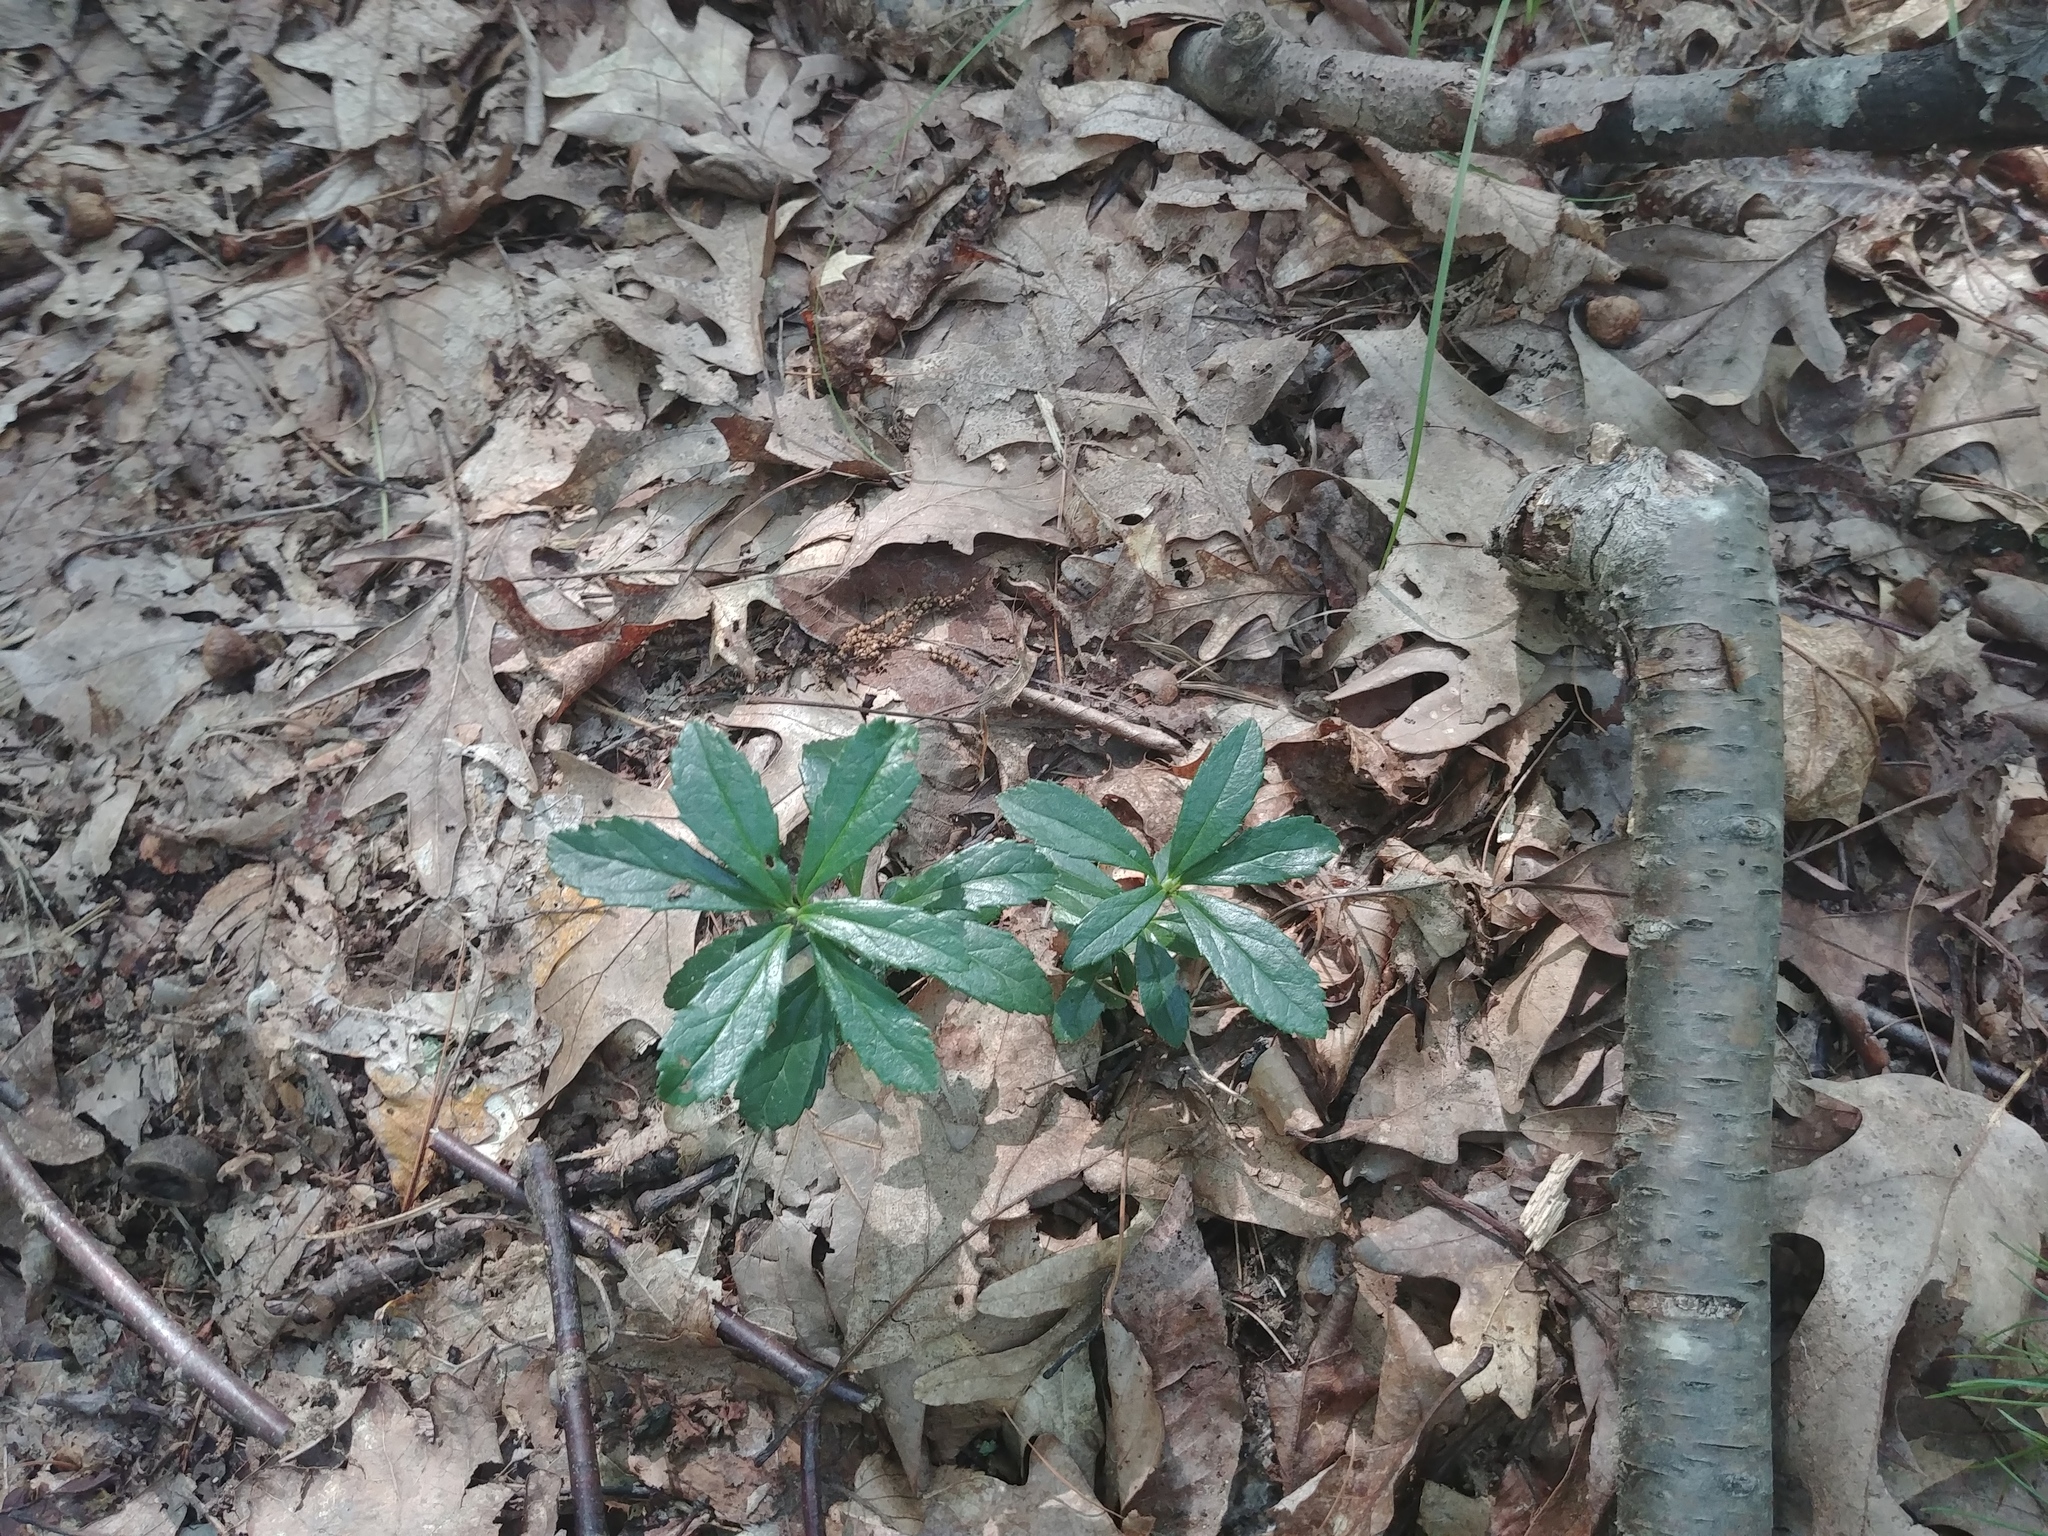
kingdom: Plantae
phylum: Tracheophyta
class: Magnoliopsida
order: Ericales
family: Ericaceae
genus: Chimaphila
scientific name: Chimaphila umbellata
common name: Pipsissewa
